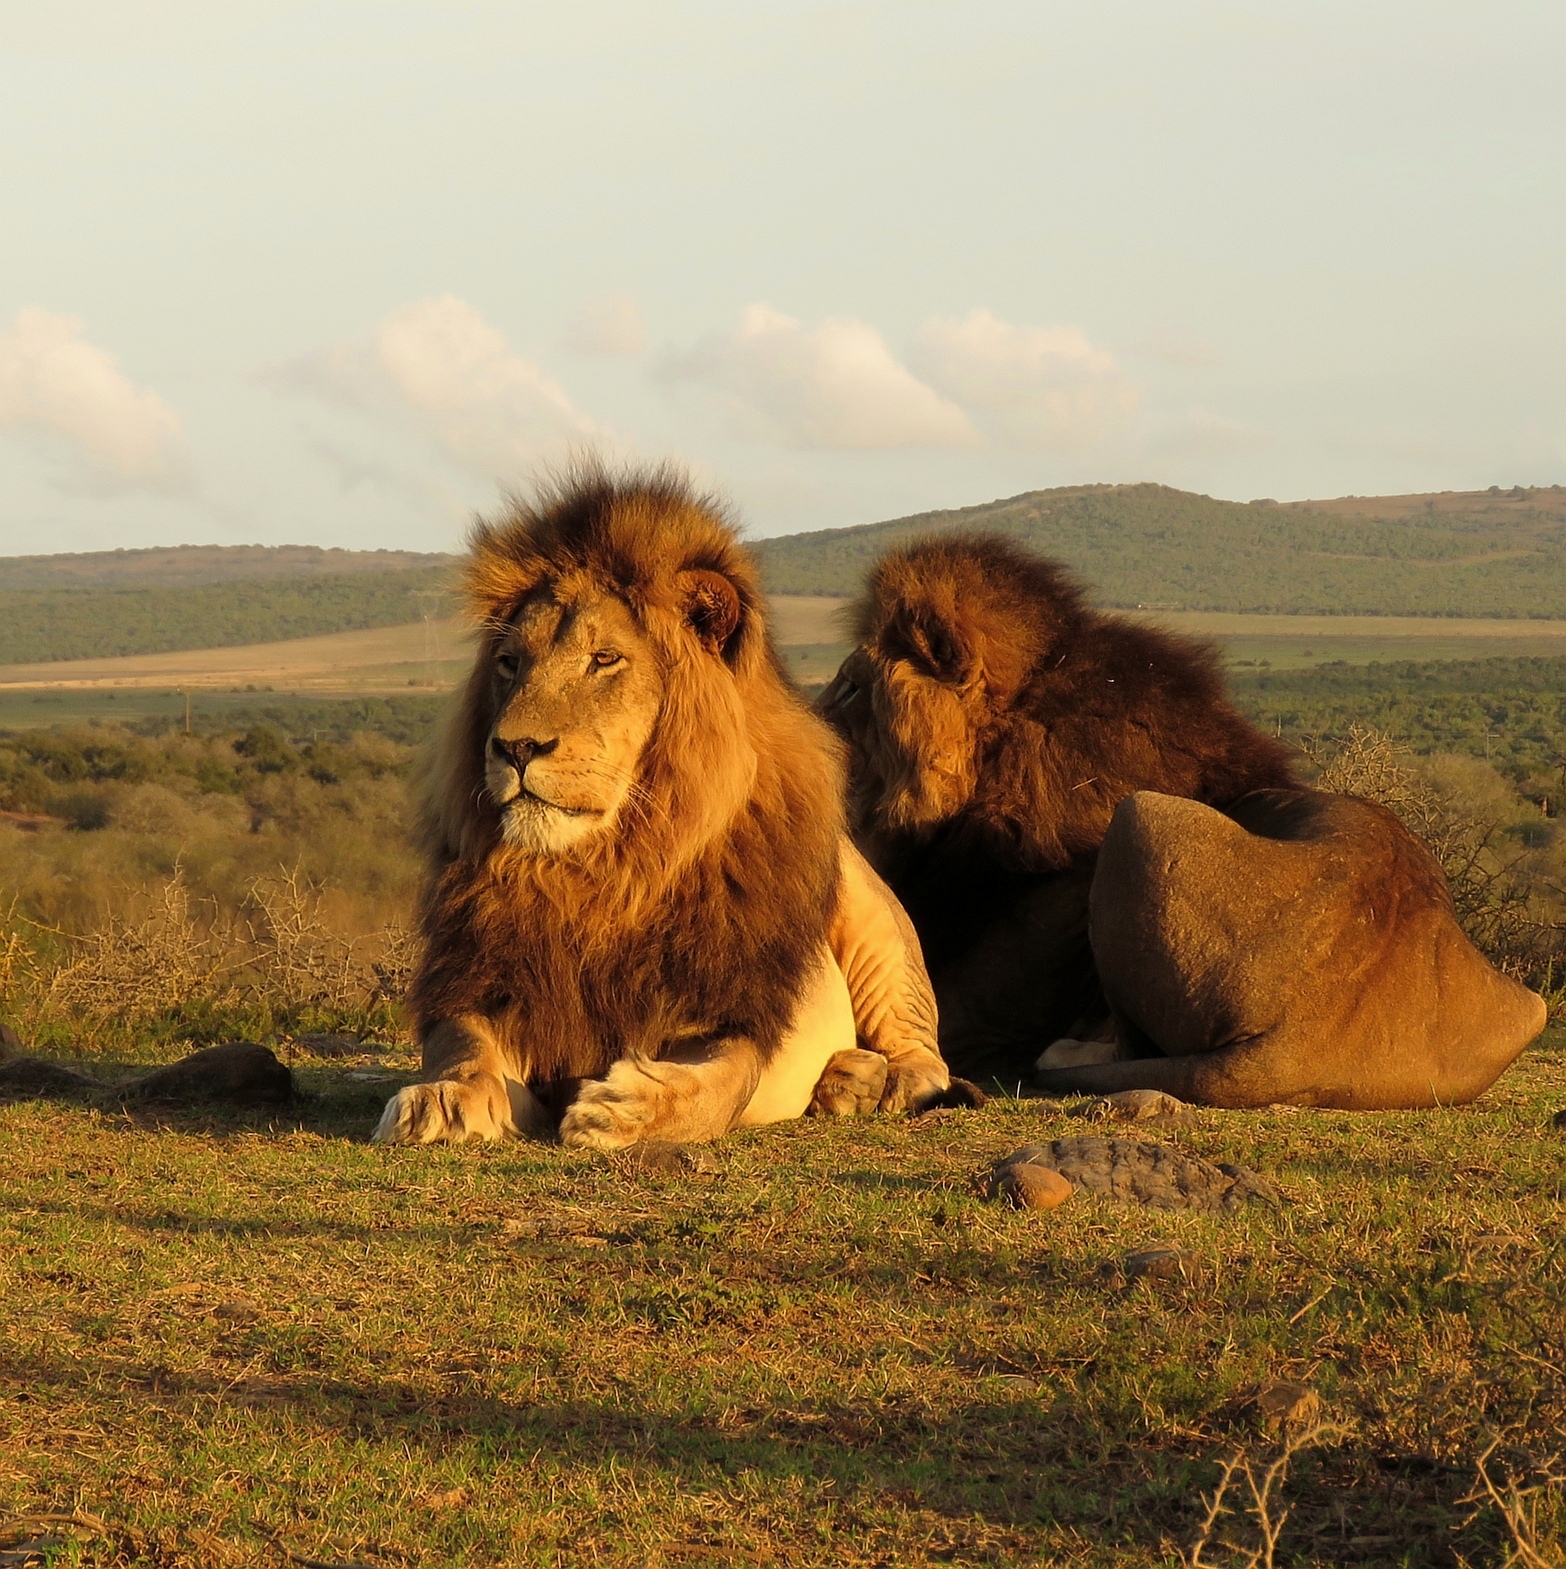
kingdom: Animalia
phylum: Chordata
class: Mammalia
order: Carnivora
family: Felidae
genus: Panthera
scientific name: Panthera leo
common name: Lion
